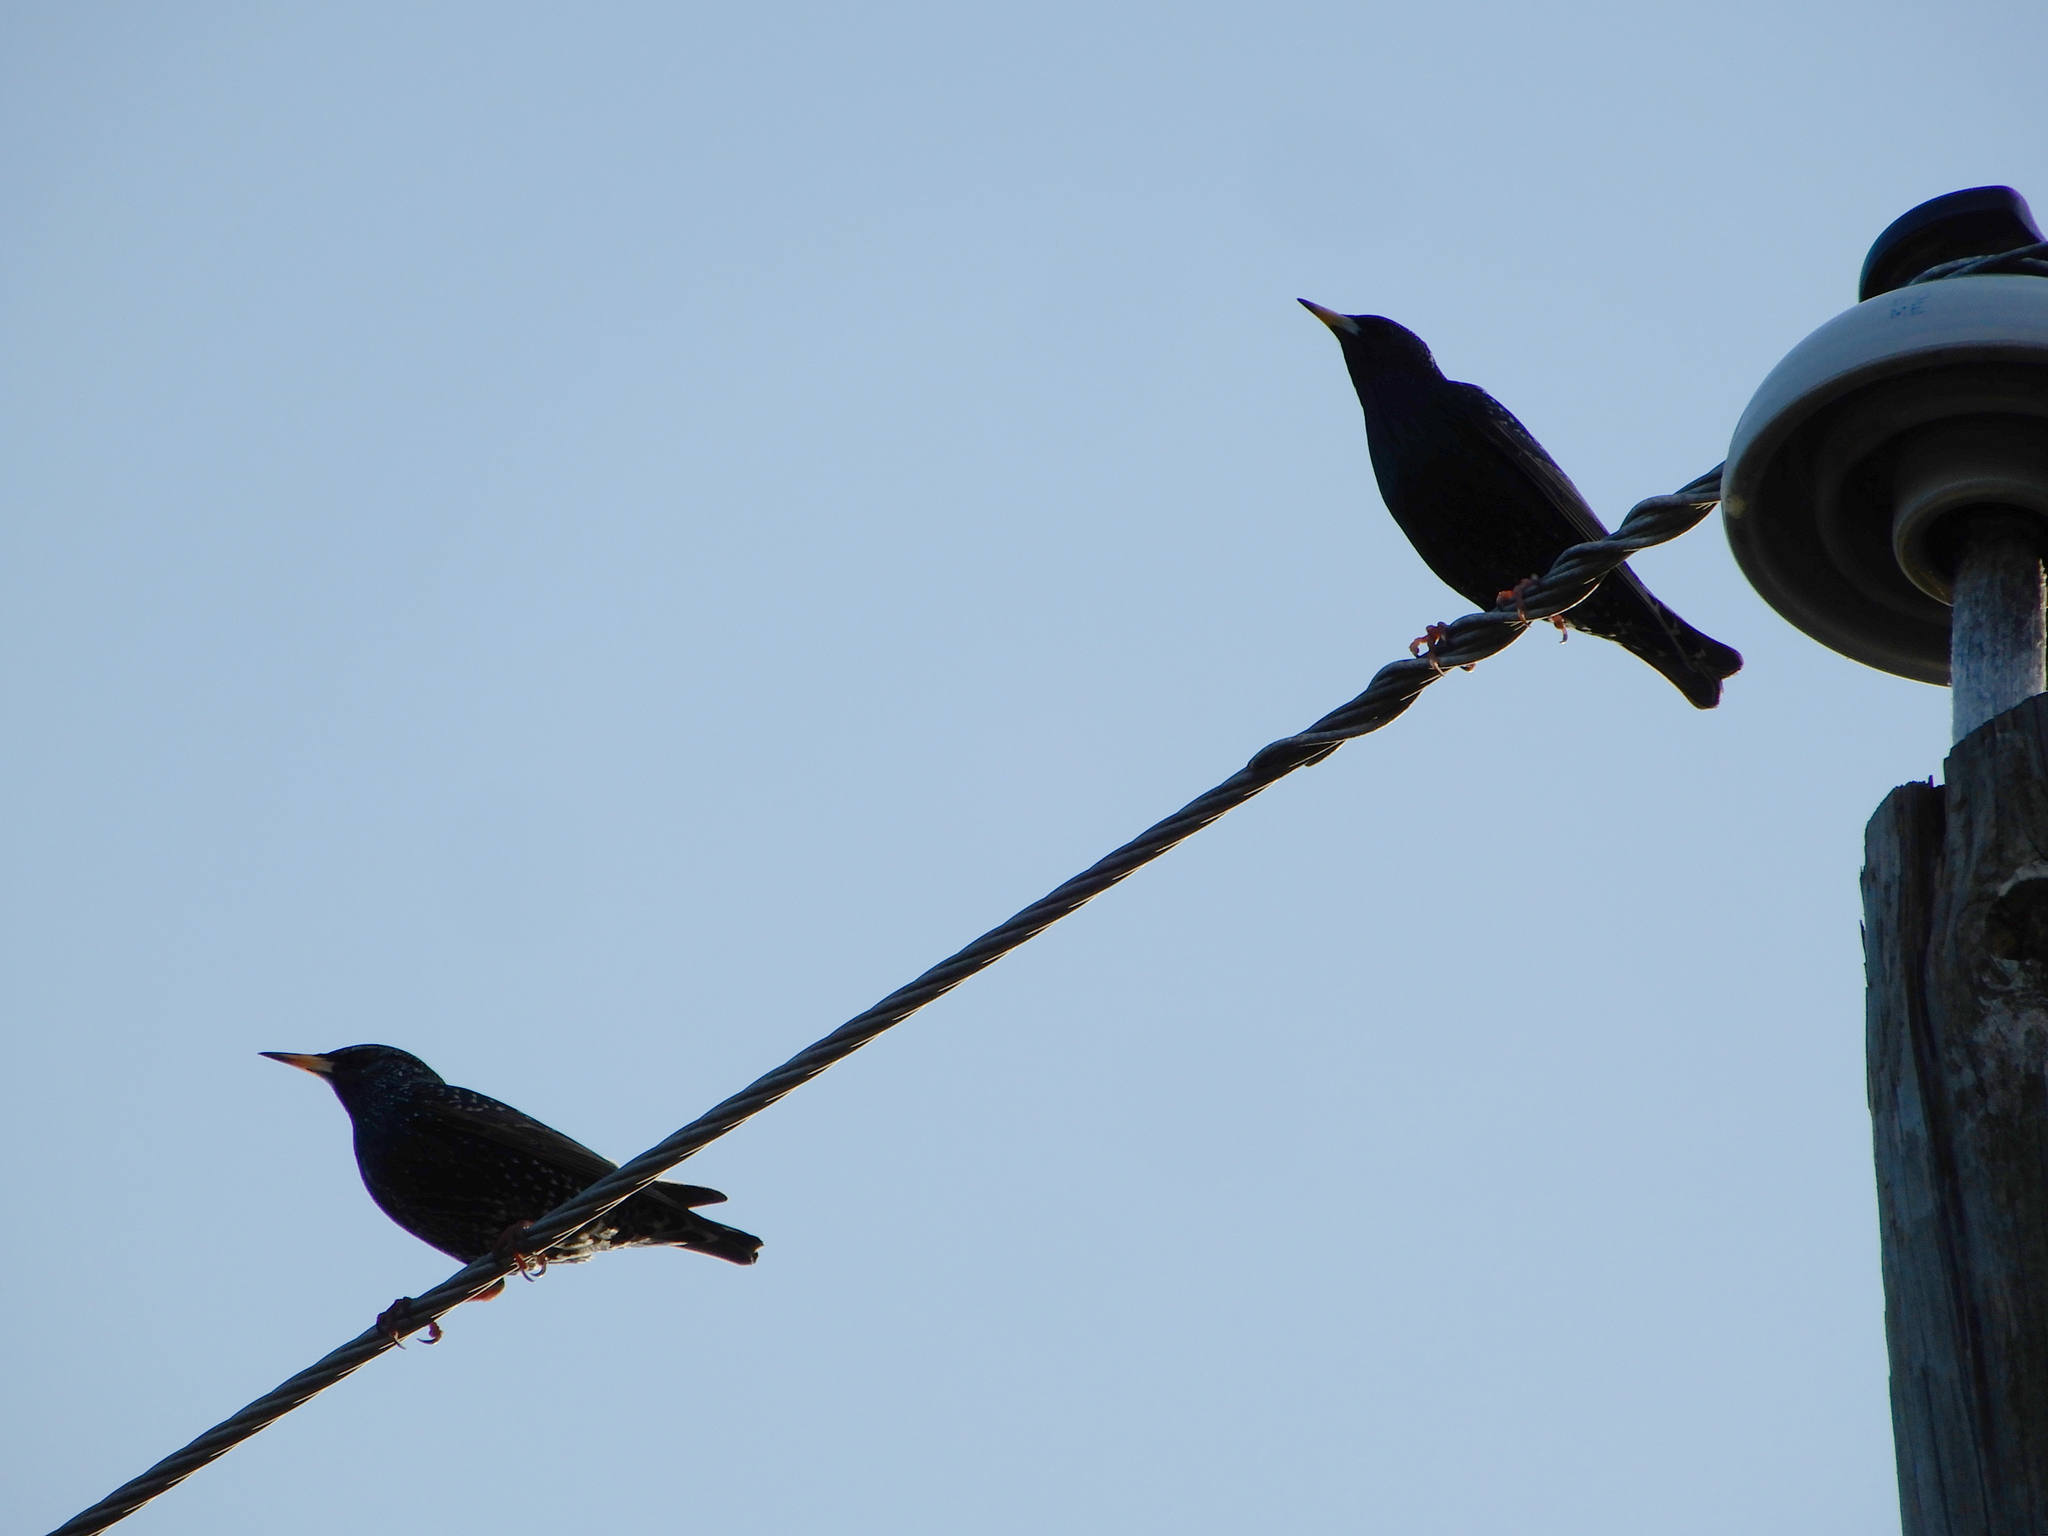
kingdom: Animalia
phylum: Chordata
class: Aves
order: Passeriformes
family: Sturnidae
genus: Sturnus
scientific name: Sturnus vulgaris
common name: Common starling
